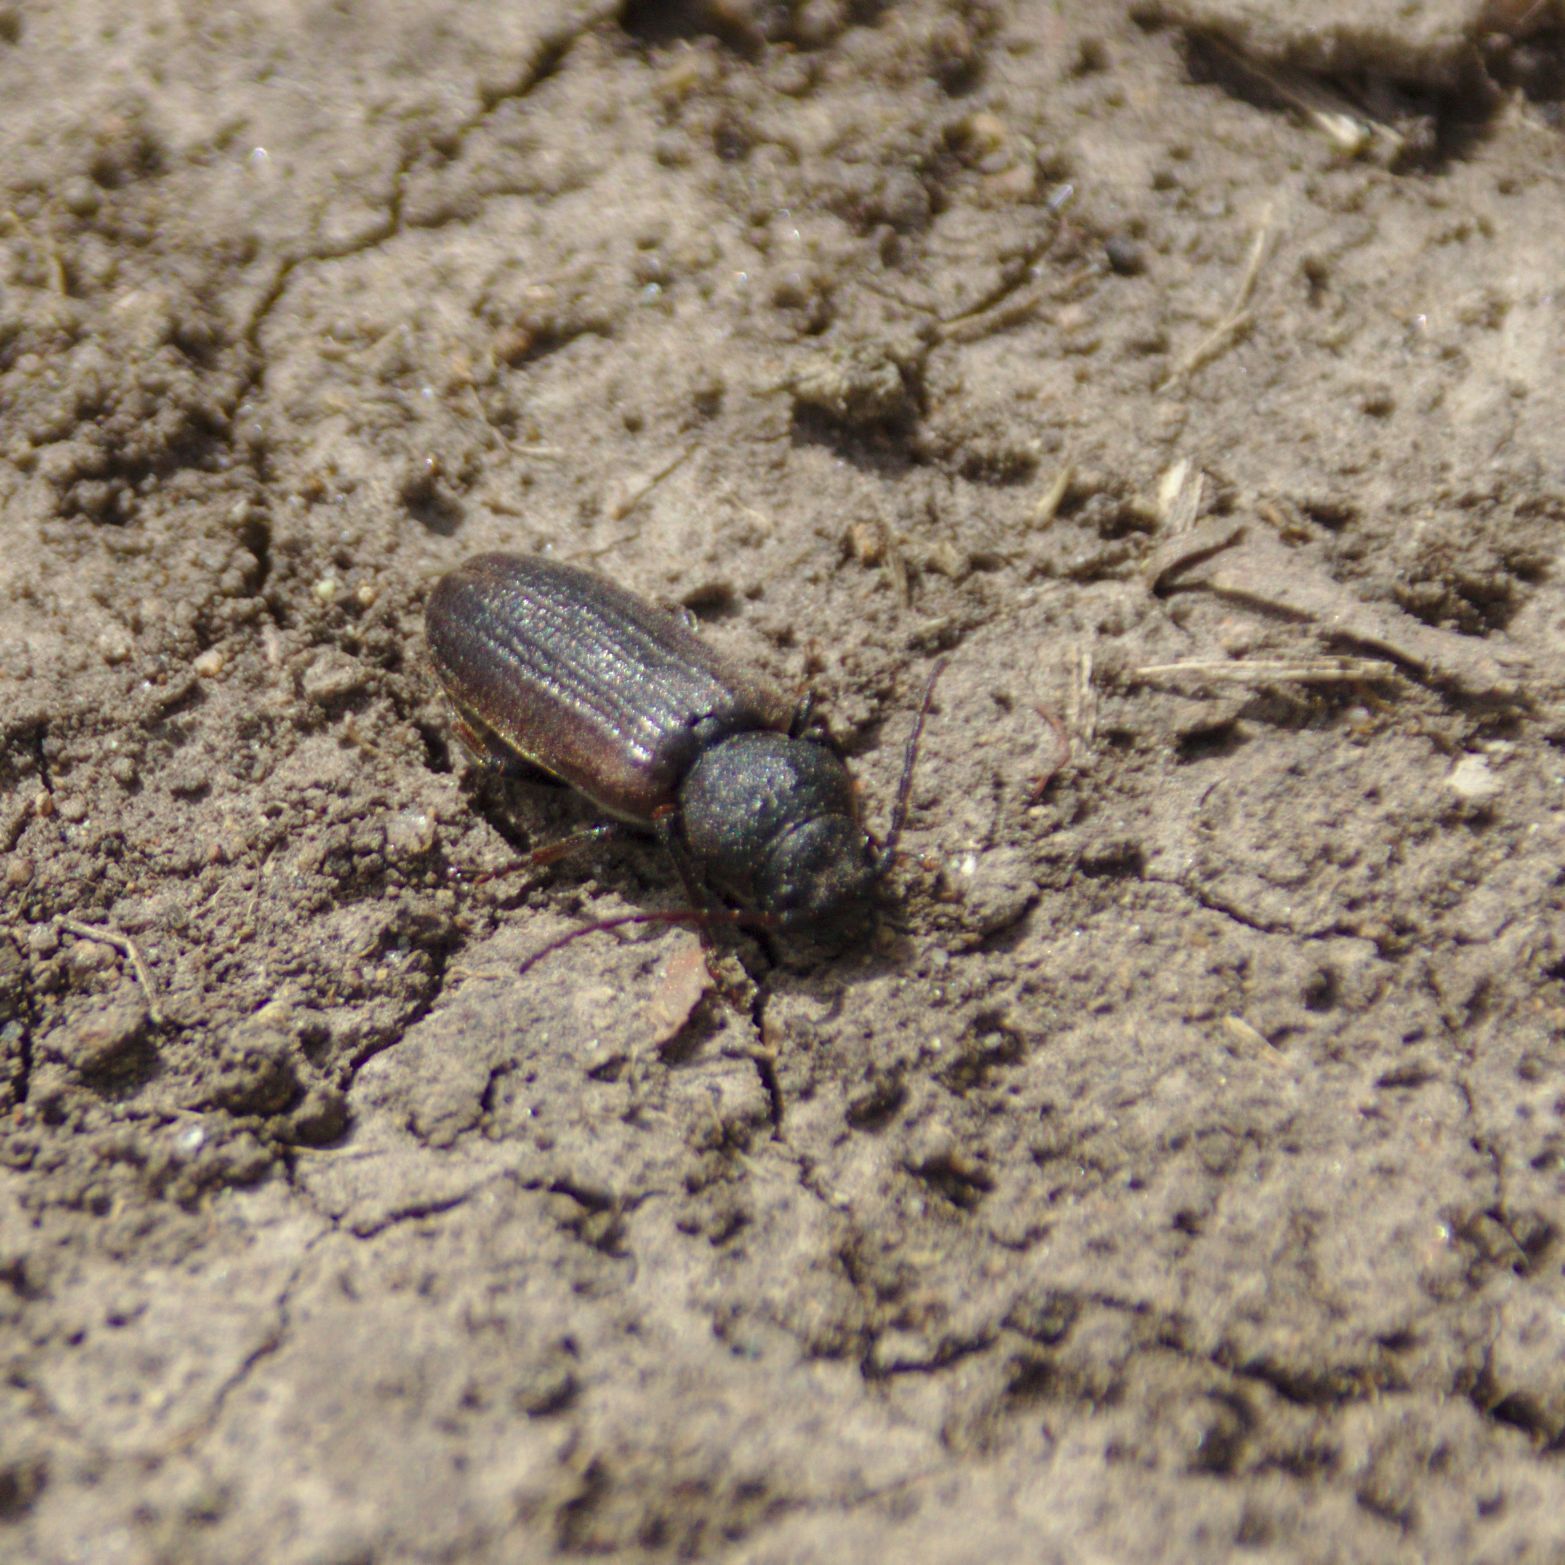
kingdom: Animalia
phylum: Arthropoda
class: Insecta
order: Coleoptera
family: Cerambycidae
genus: Asemum
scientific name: Asemum striatum
